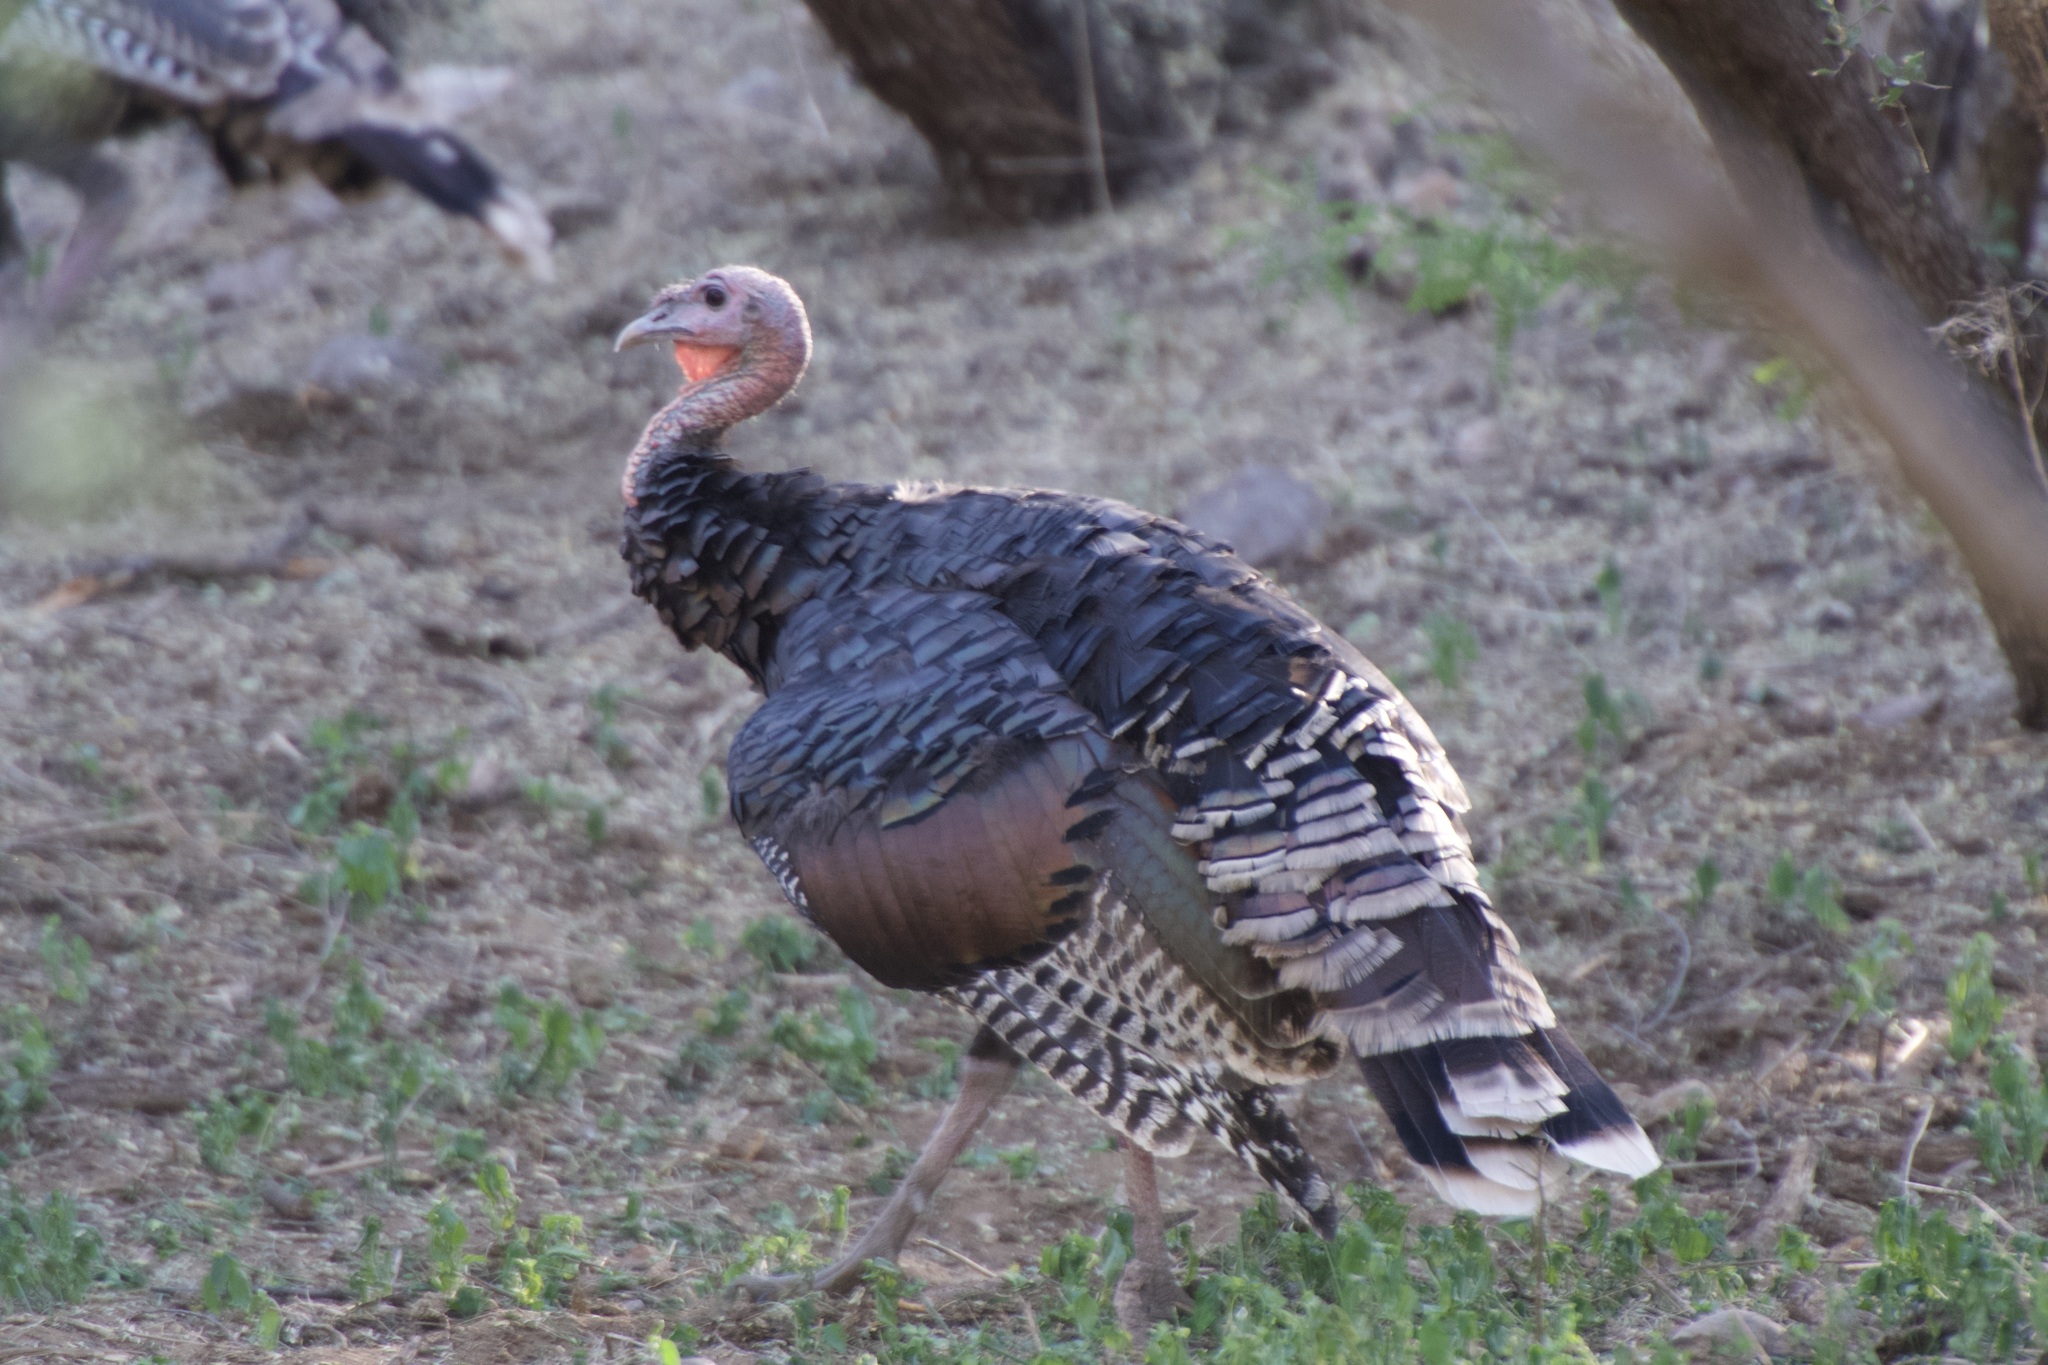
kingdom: Animalia
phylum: Chordata
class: Aves
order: Galliformes
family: Phasianidae
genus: Meleagris
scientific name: Meleagris gallopavo
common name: Wild turkey
